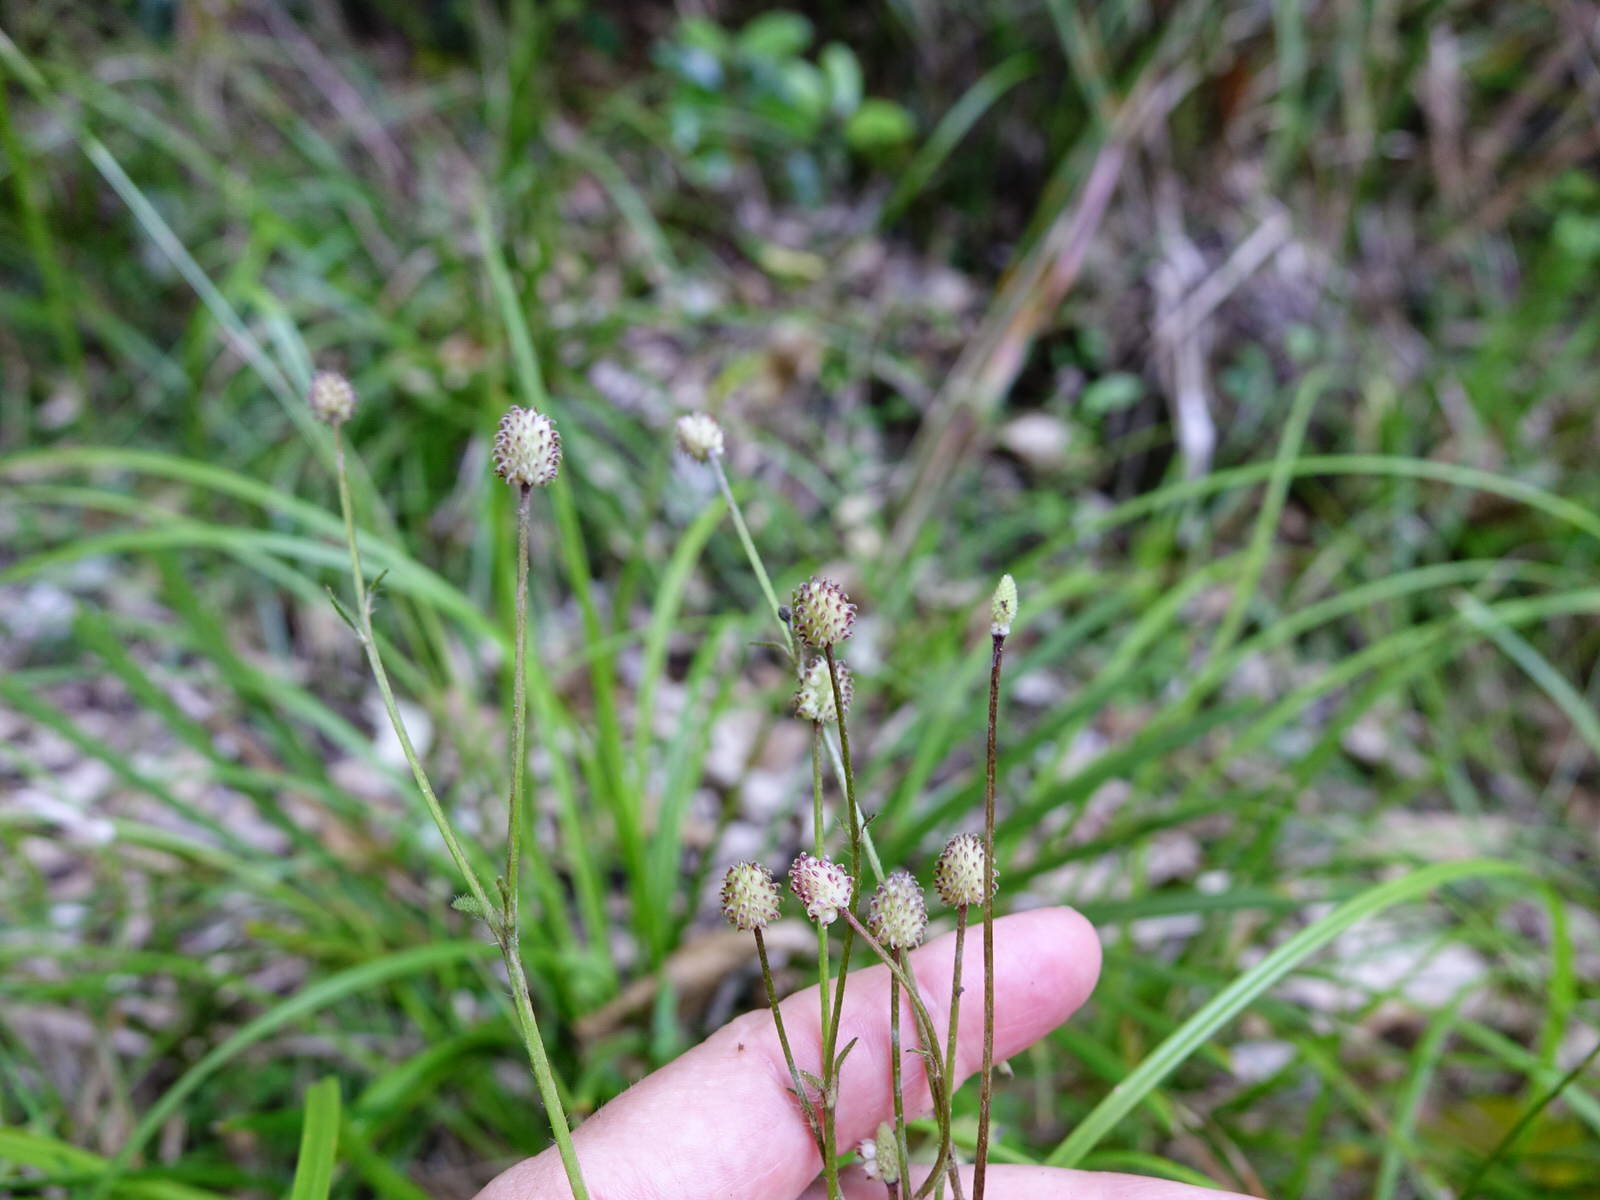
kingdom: Plantae
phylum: Tracheophyta
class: Magnoliopsida
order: Ranunculales
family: Ranunculaceae
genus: Ranunculus
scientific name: Ranunculus reflexus
